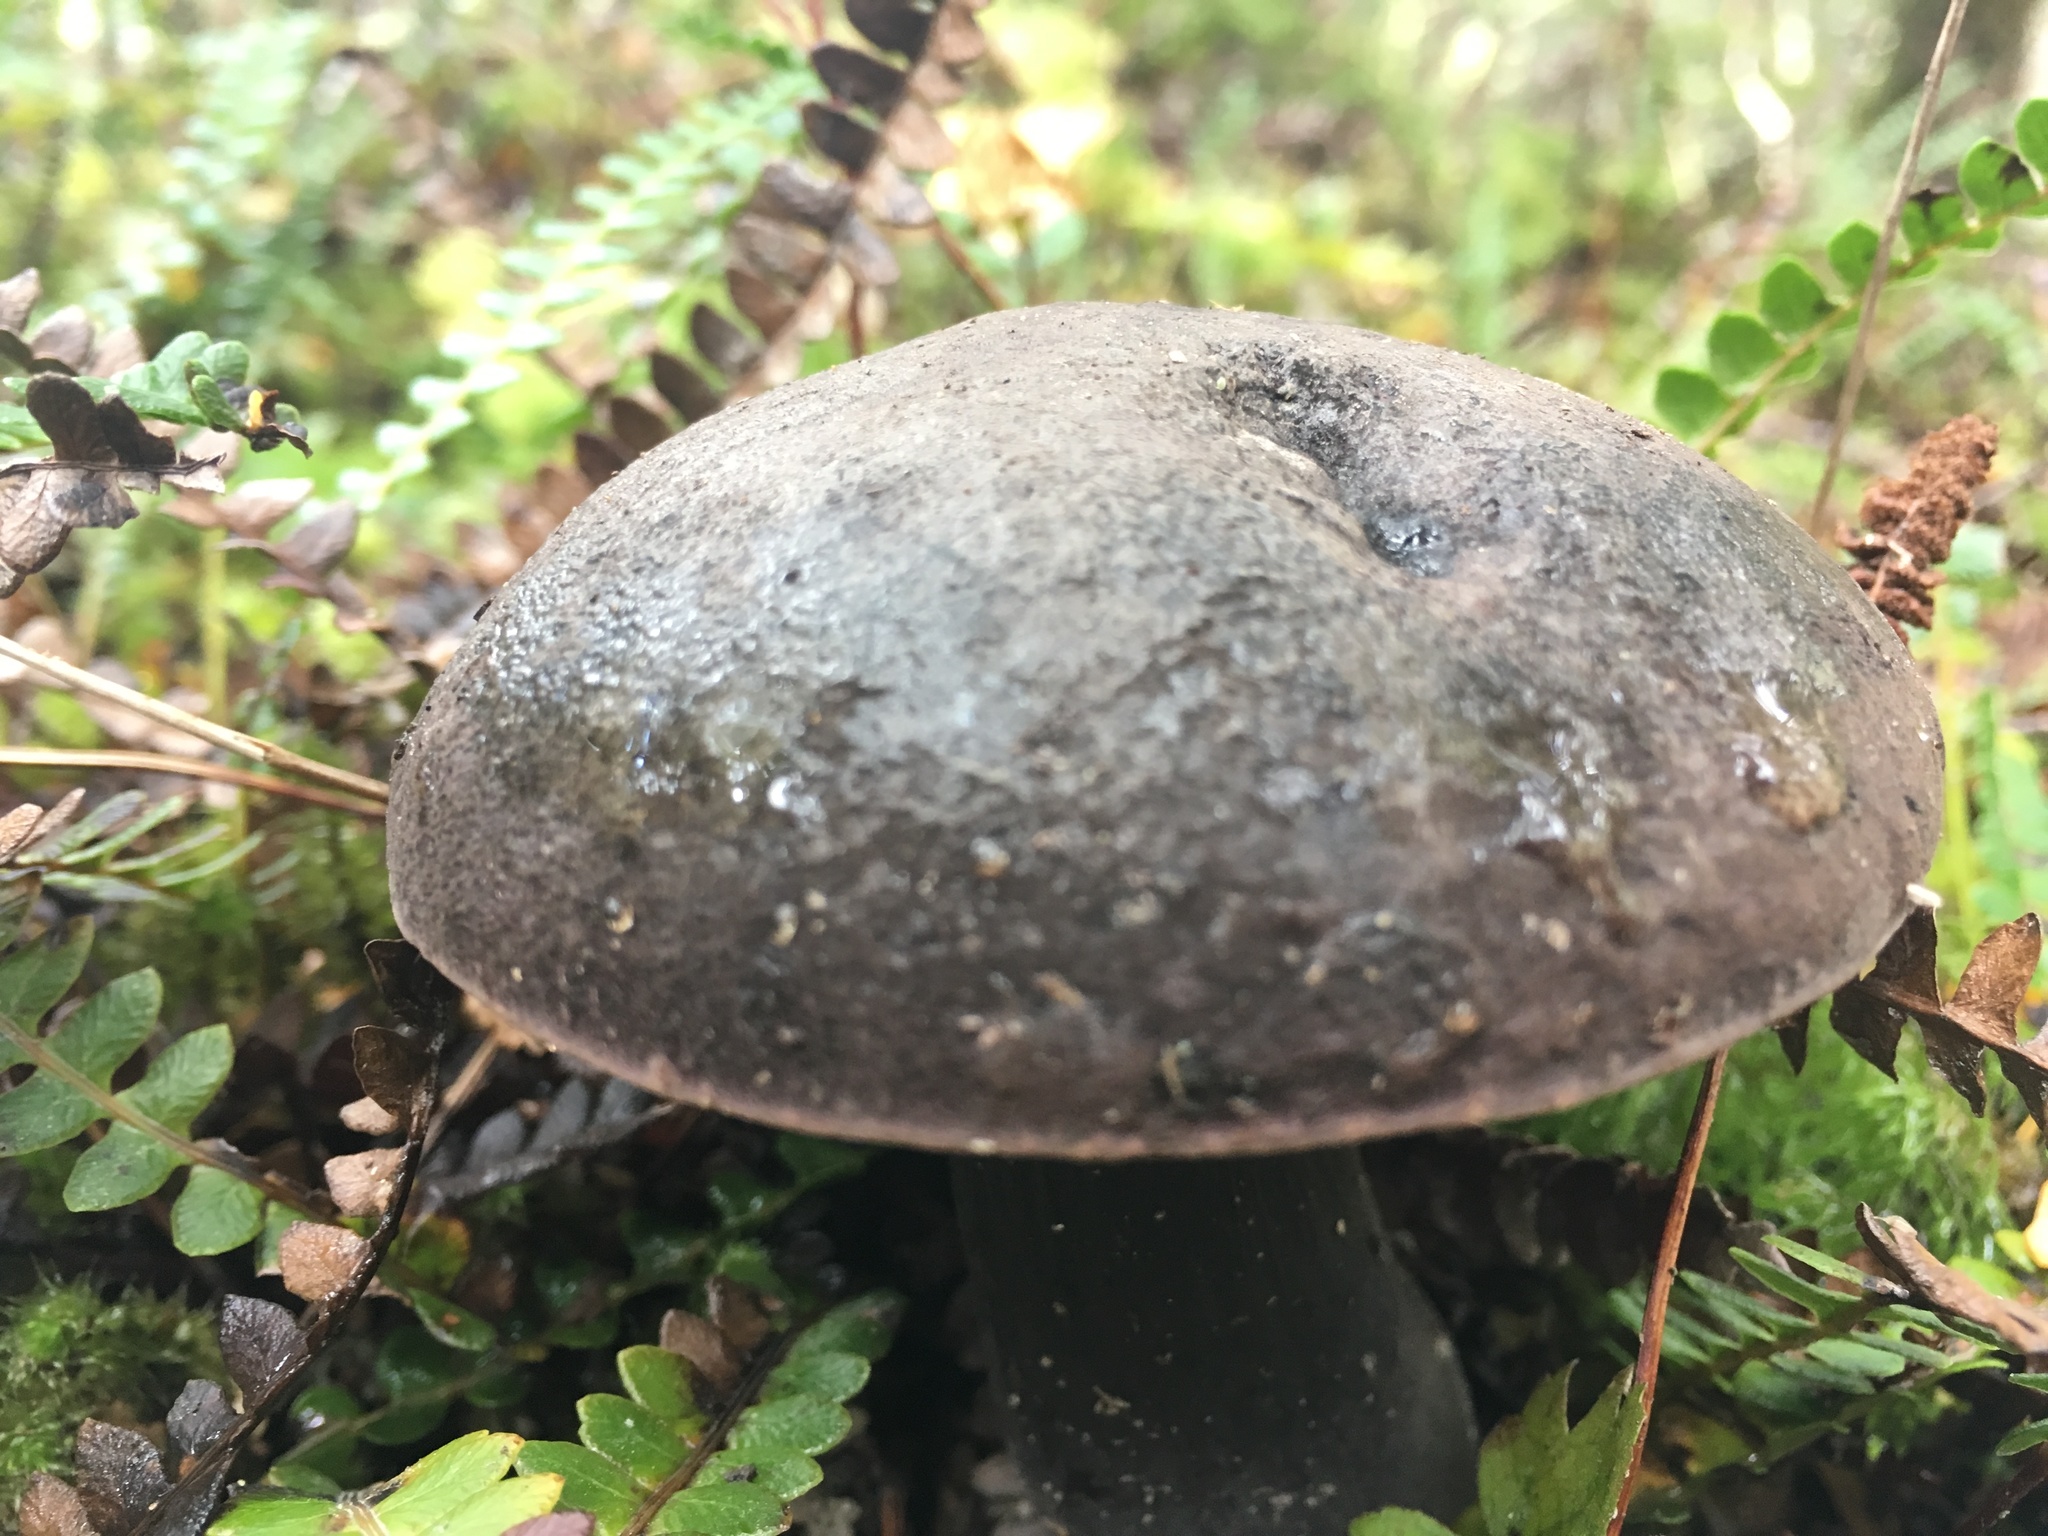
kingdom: Fungi
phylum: Basidiomycota
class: Agaricomycetes
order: Boletales
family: Boletaceae
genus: Porphyrellus
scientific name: Porphyrellus formosus
